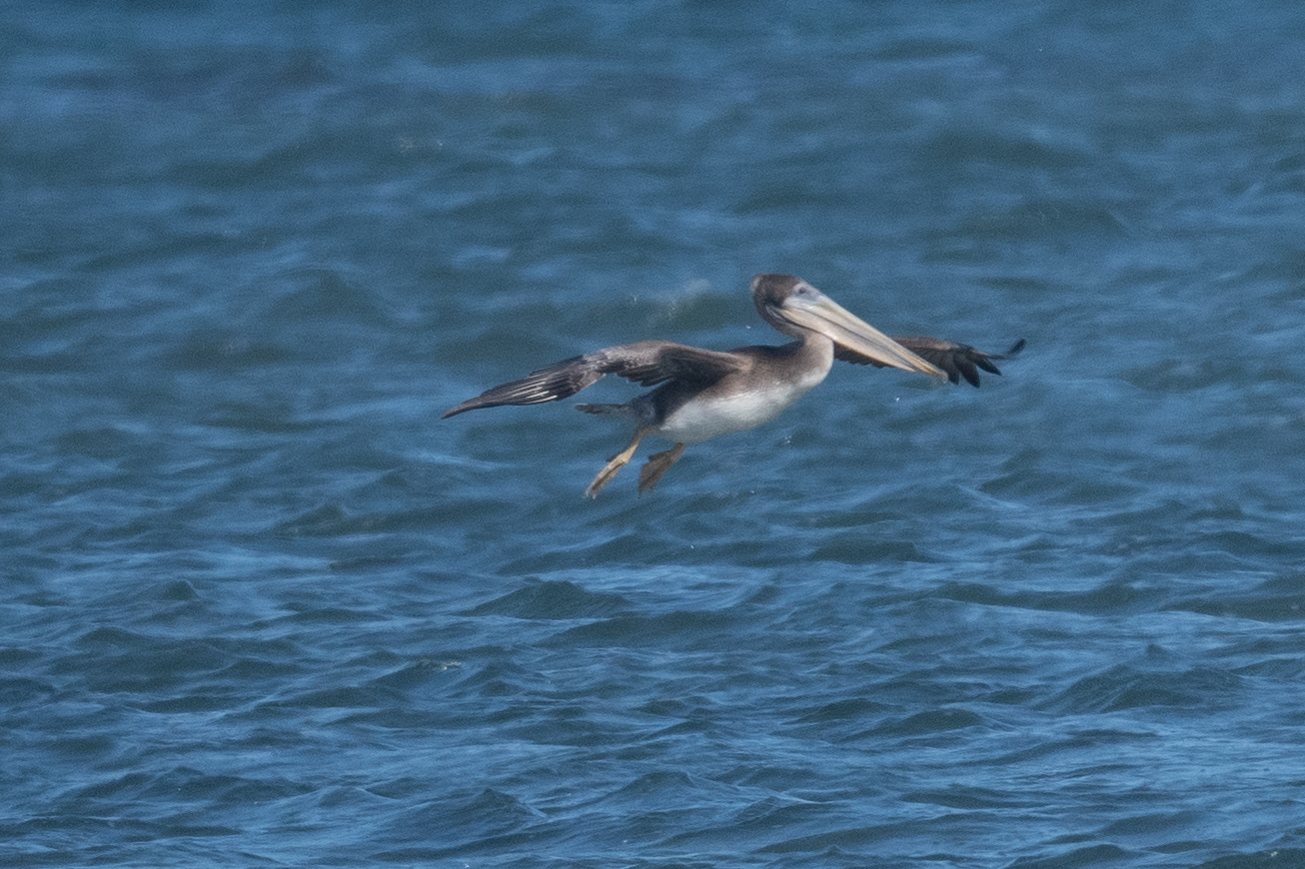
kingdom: Animalia
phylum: Chordata
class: Aves
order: Pelecaniformes
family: Pelecanidae
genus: Pelecanus
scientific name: Pelecanus occidentalis
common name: Brown pelican
